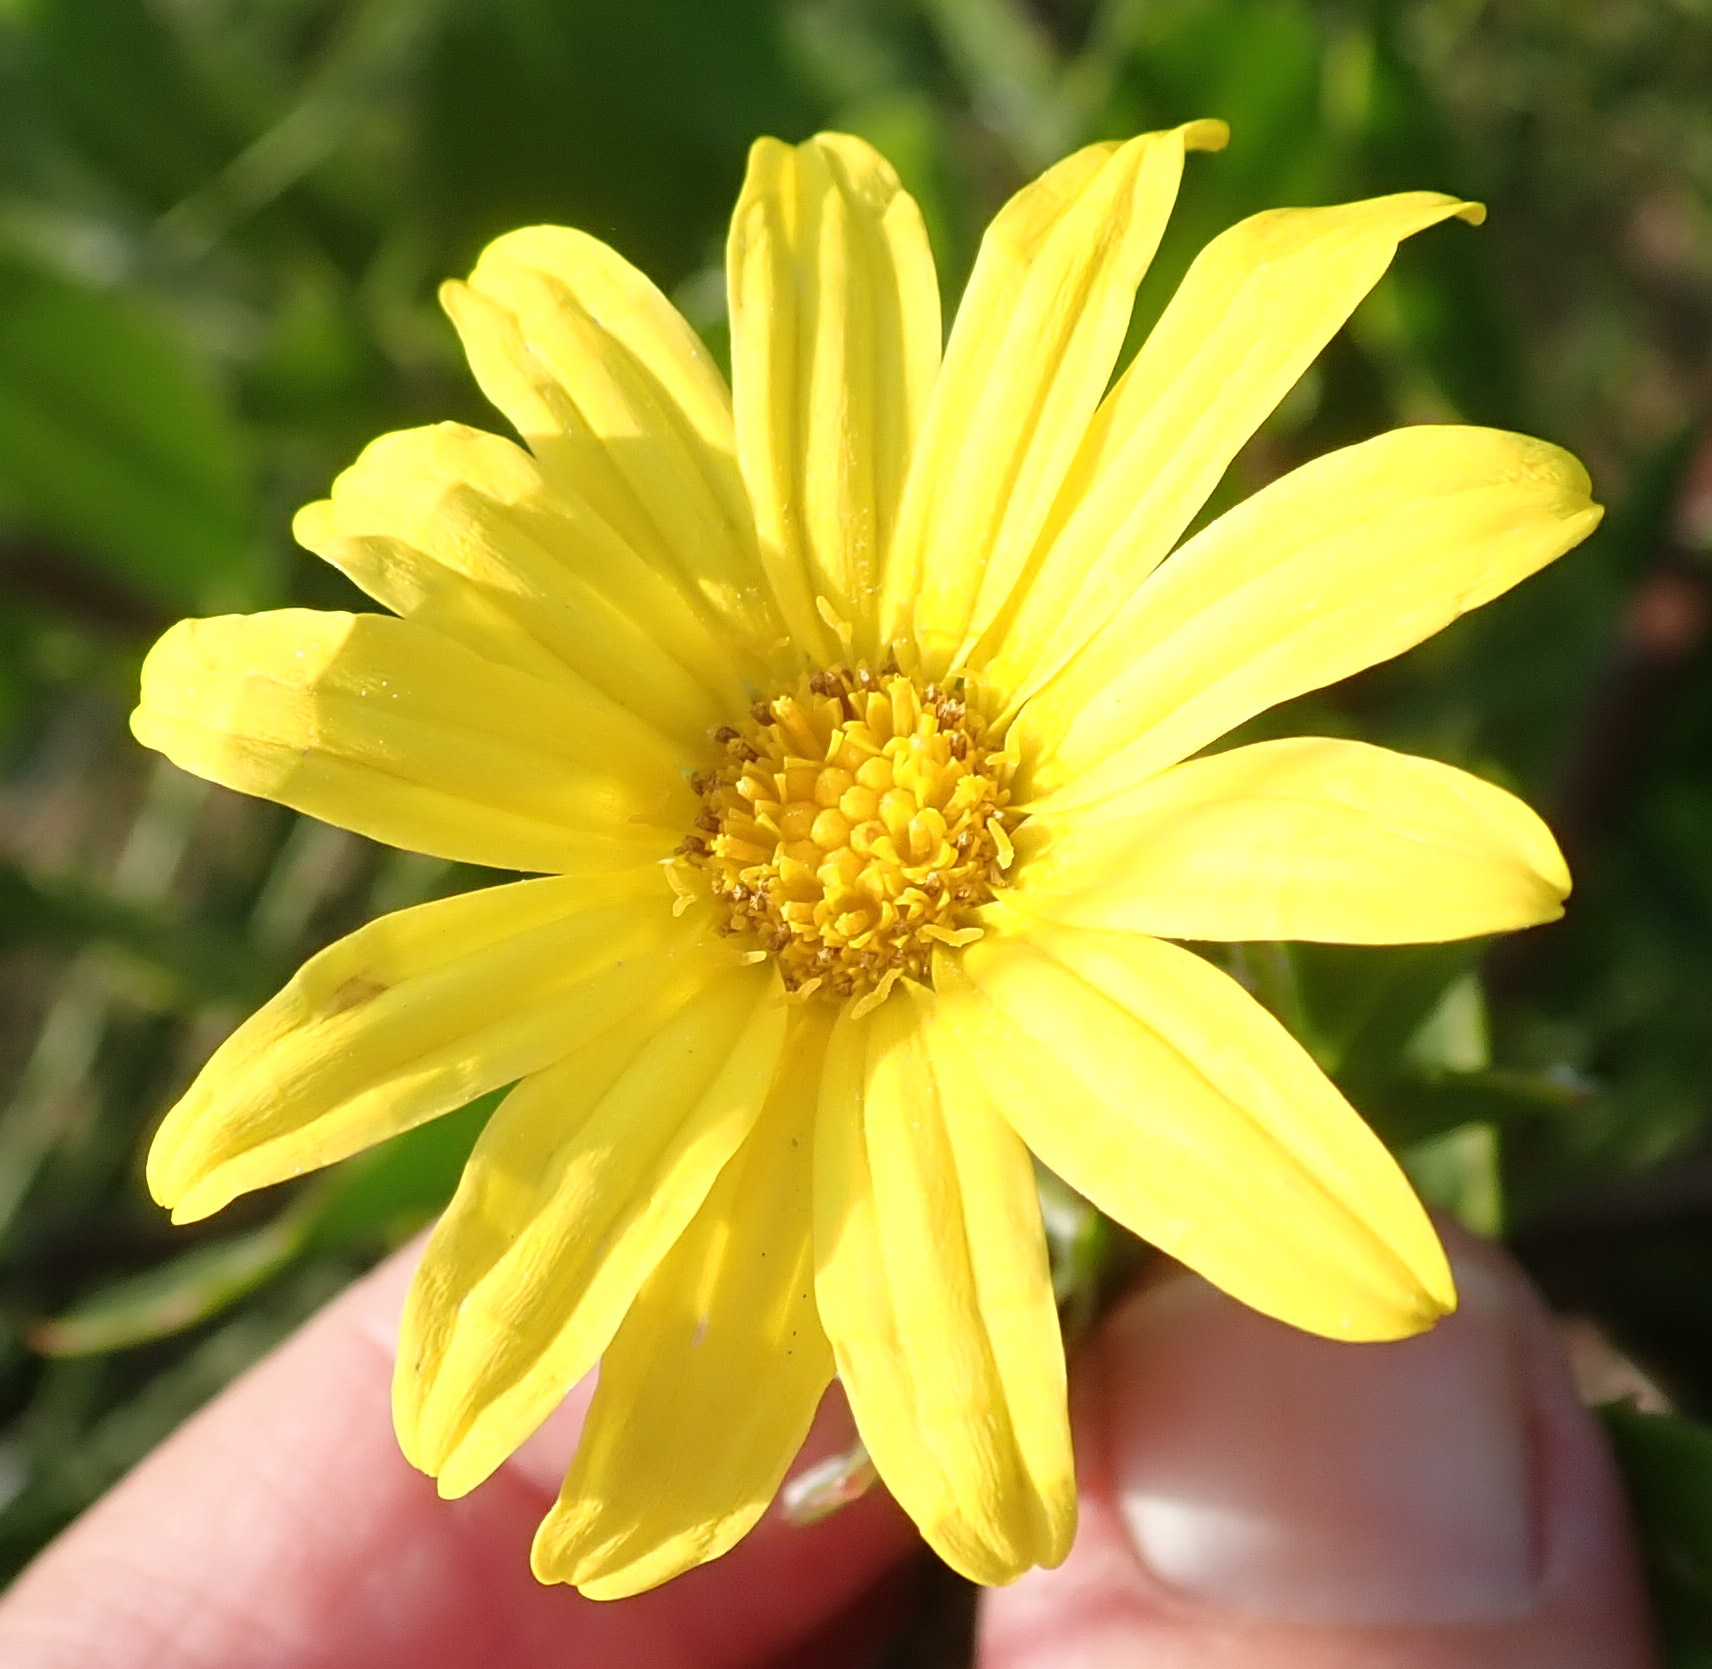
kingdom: Plantae
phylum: Tracheophyta
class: Magnoliopsida
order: Asterales
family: Asteraceae
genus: Osteospermum
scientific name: Osteospermum moniliferum
